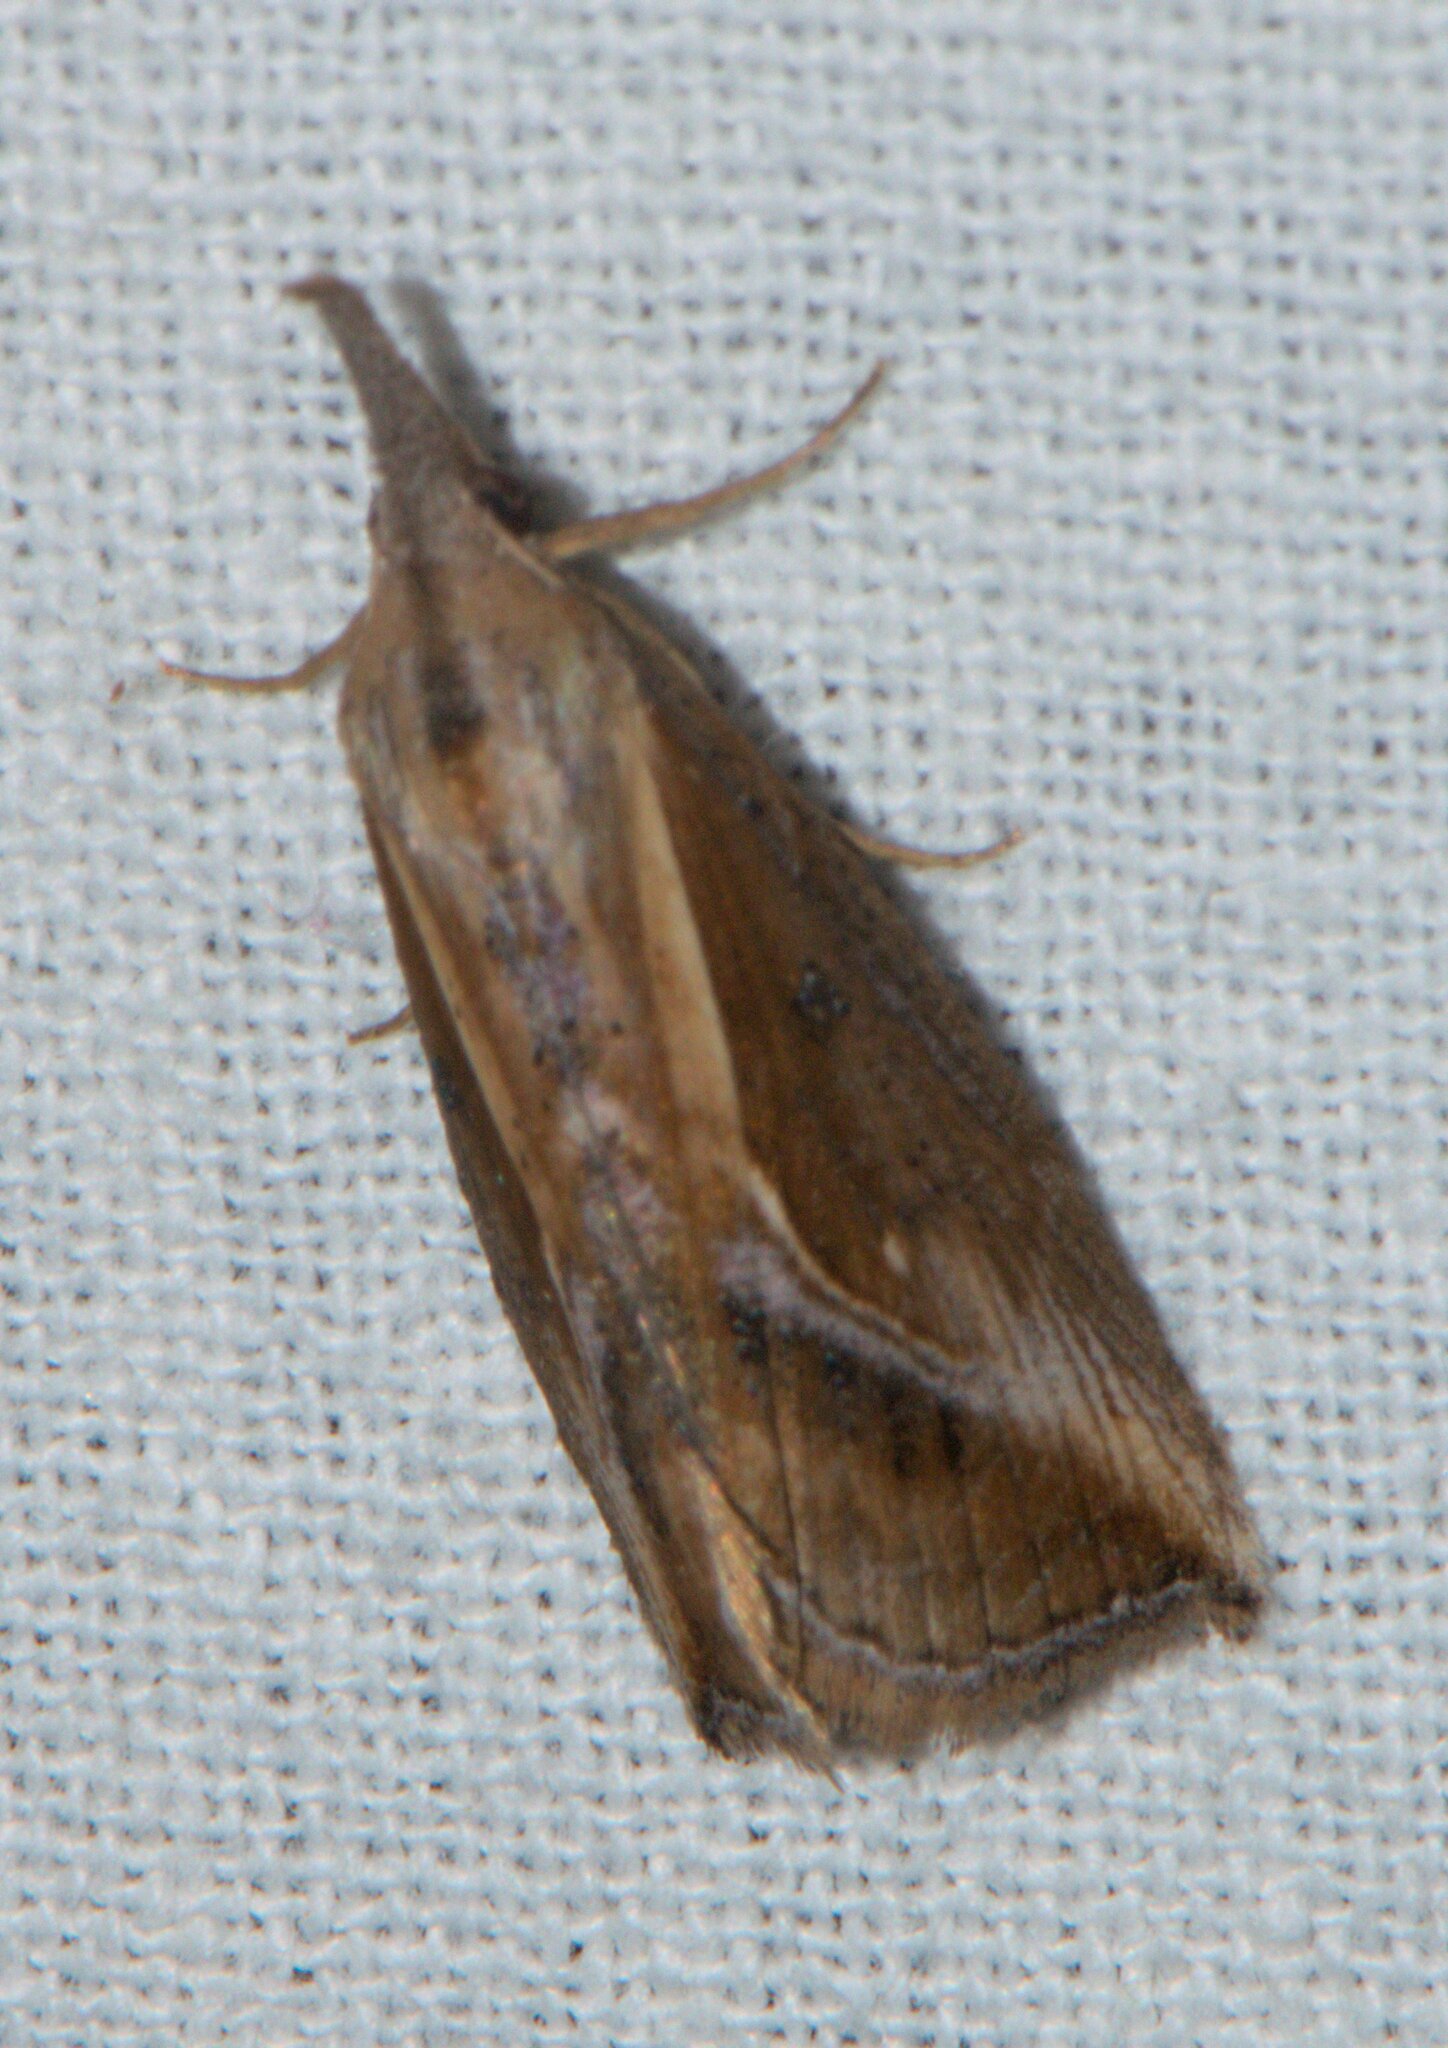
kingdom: Animalia
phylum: Arthropoda
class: Insecta
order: Lepidoptera
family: Erebidae
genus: Rhynchina
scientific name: Rhynchina angulifascia
